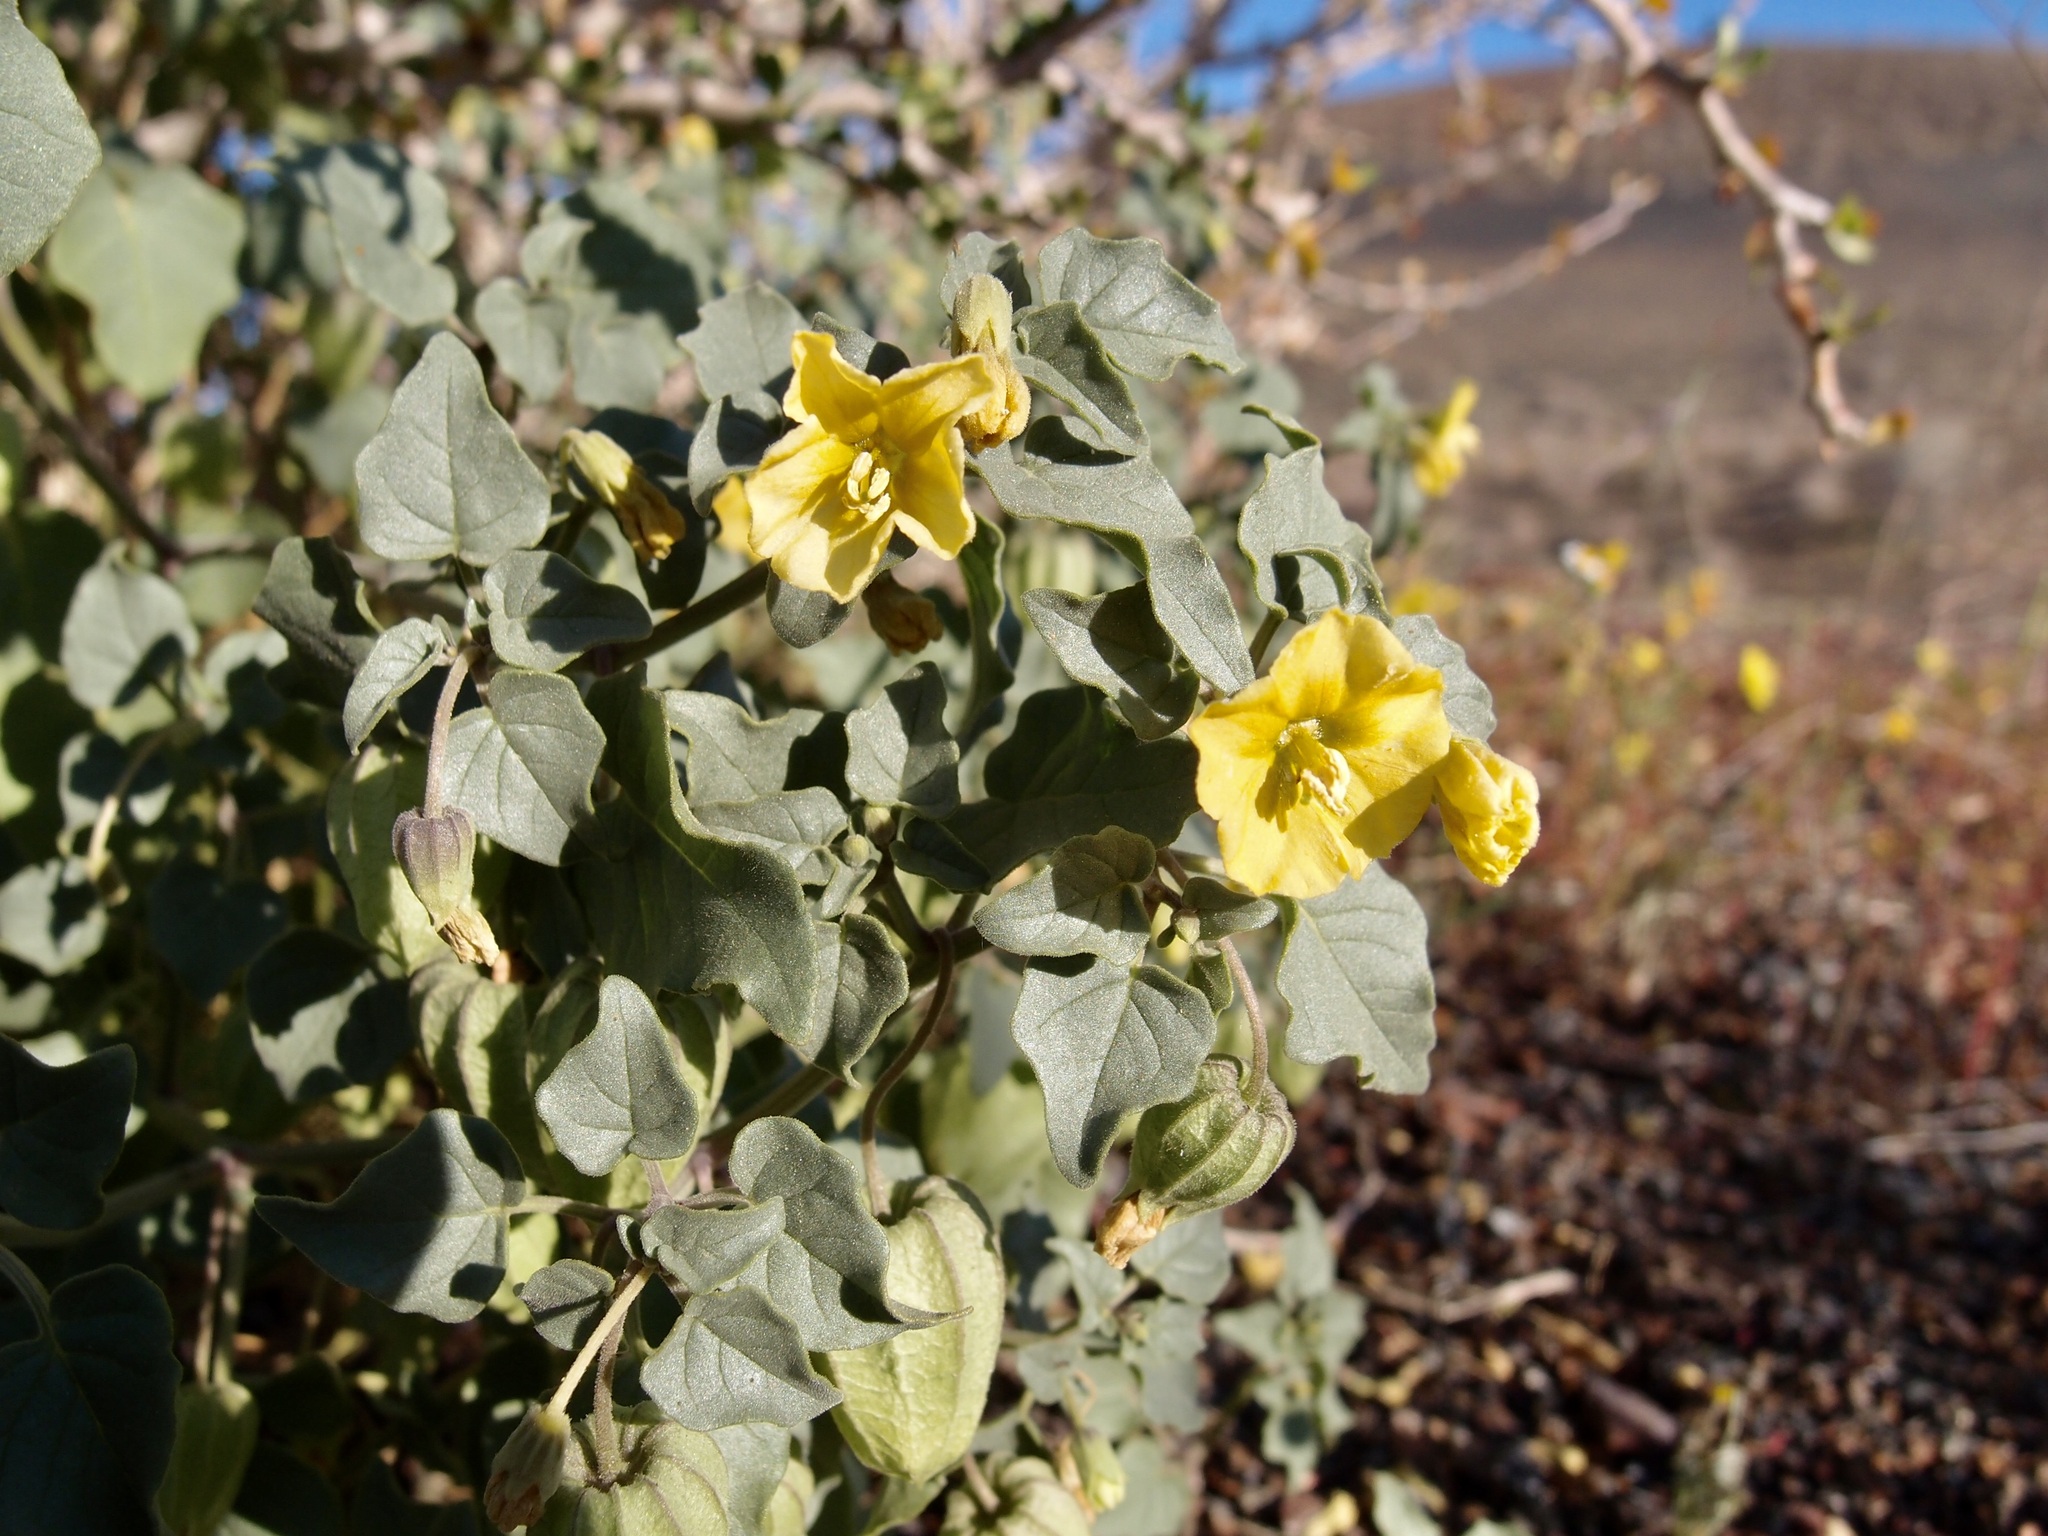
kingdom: Plantae
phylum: Tracheophyta
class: Magnoliopsida
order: Solanales
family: Solanaceae
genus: Physalis
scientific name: Physalis crassifolia
